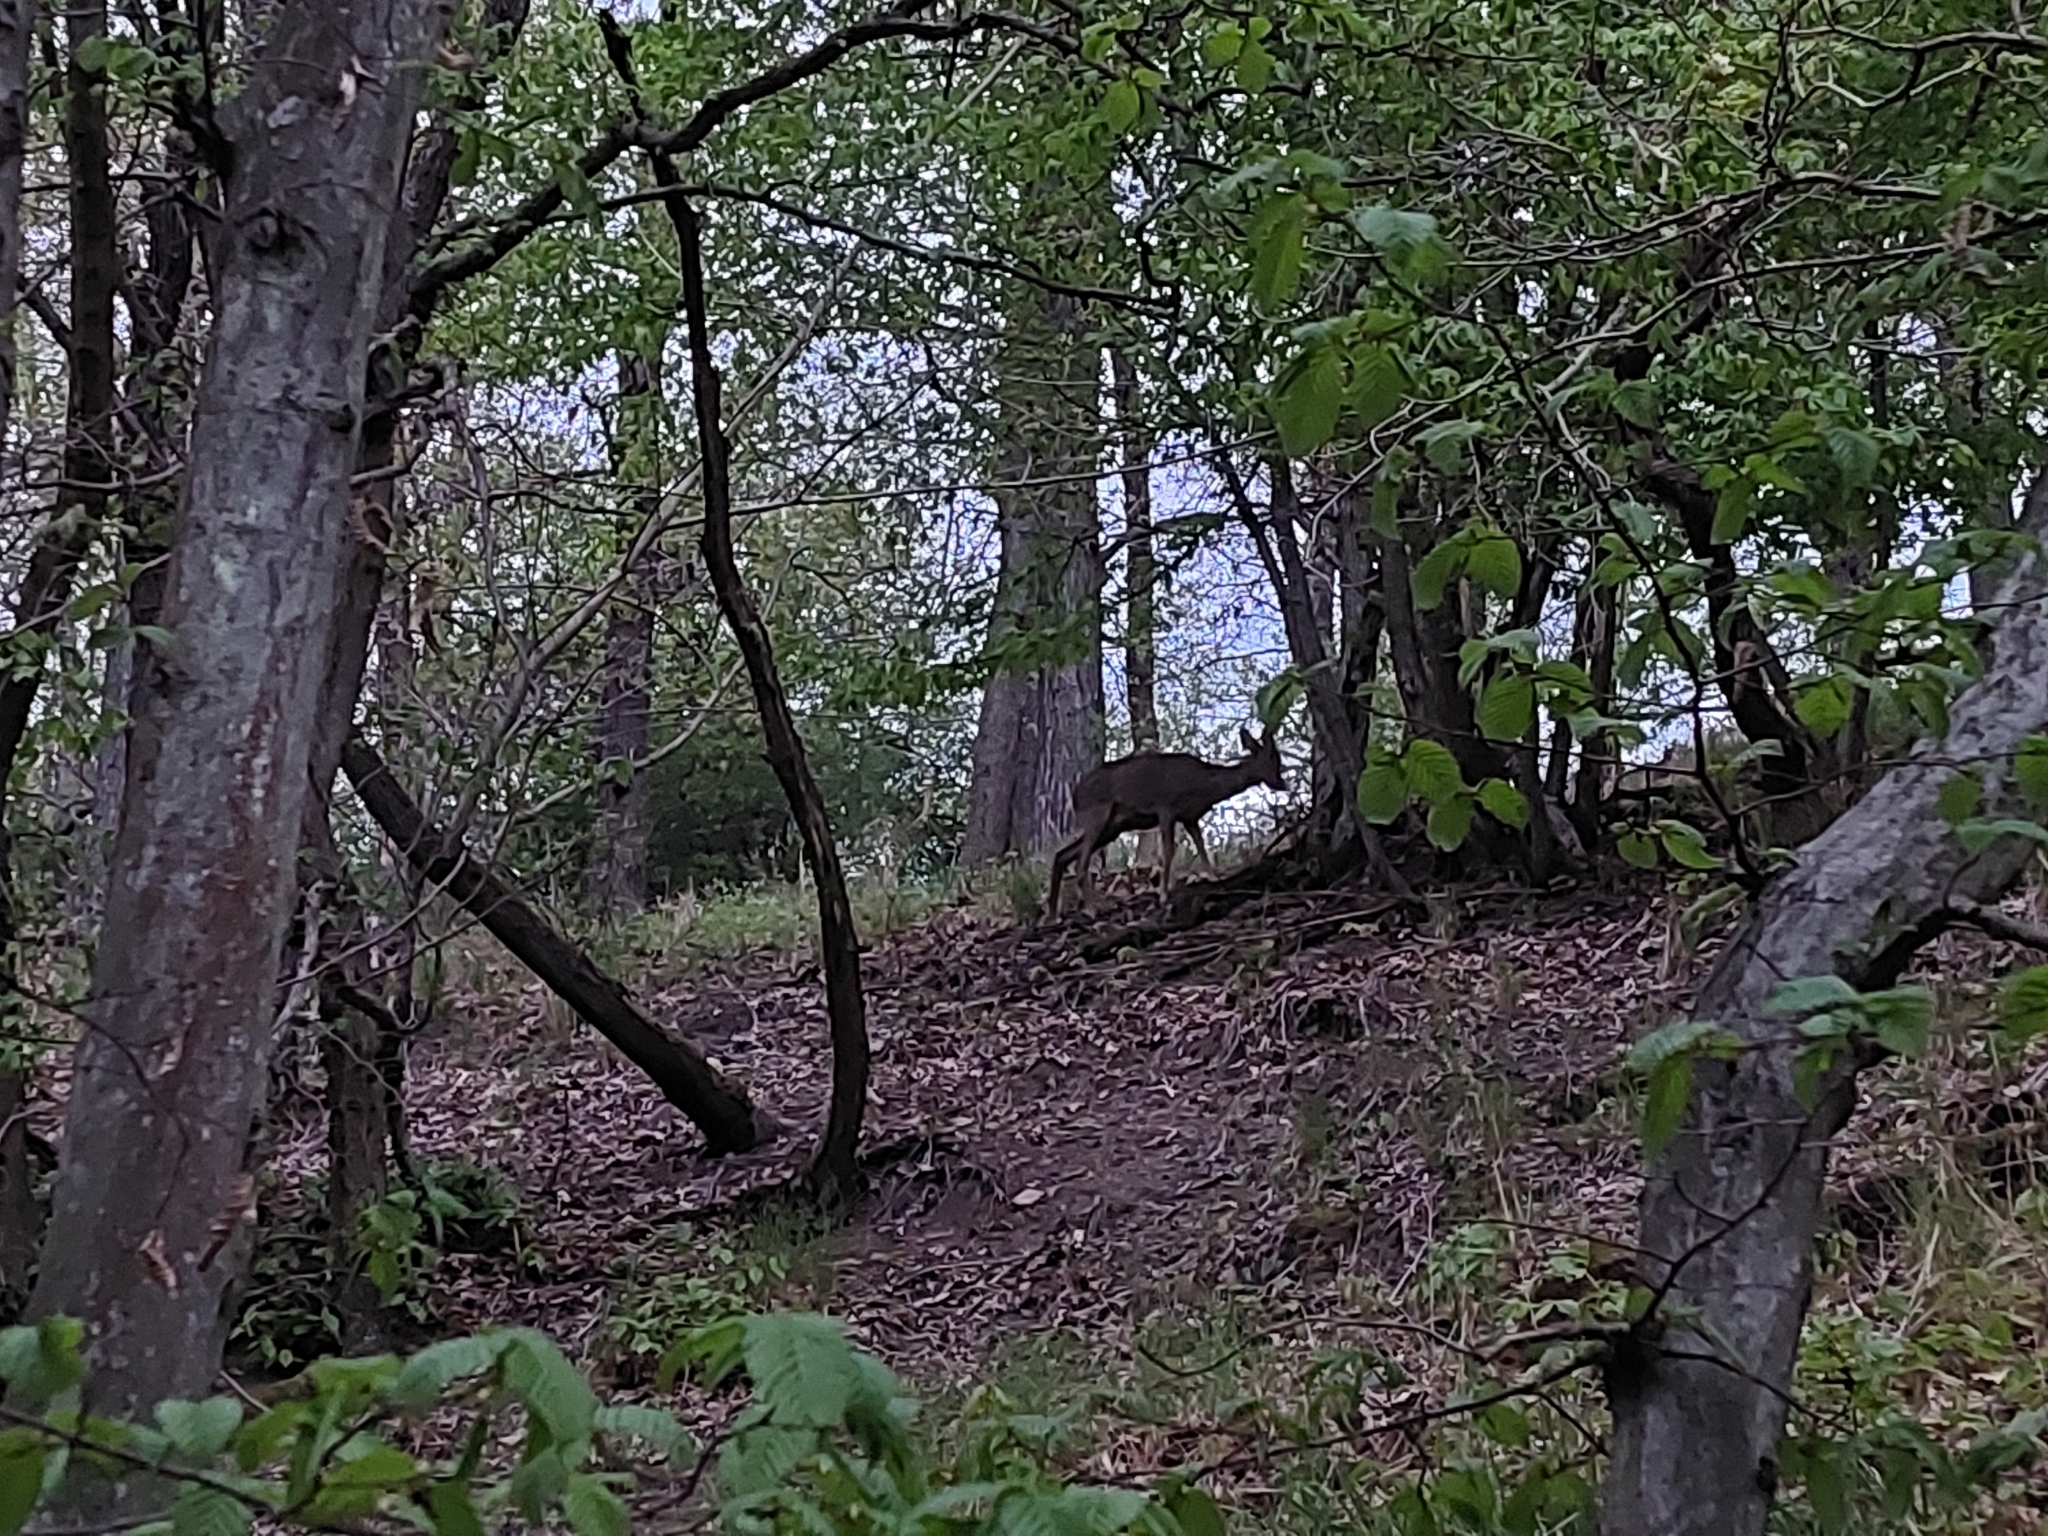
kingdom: Animalia
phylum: Chordata
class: Mammalia
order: Artiodactyla
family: Cervidae
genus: Capreolus
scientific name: Capreolus capreolus
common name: Western roe deer
